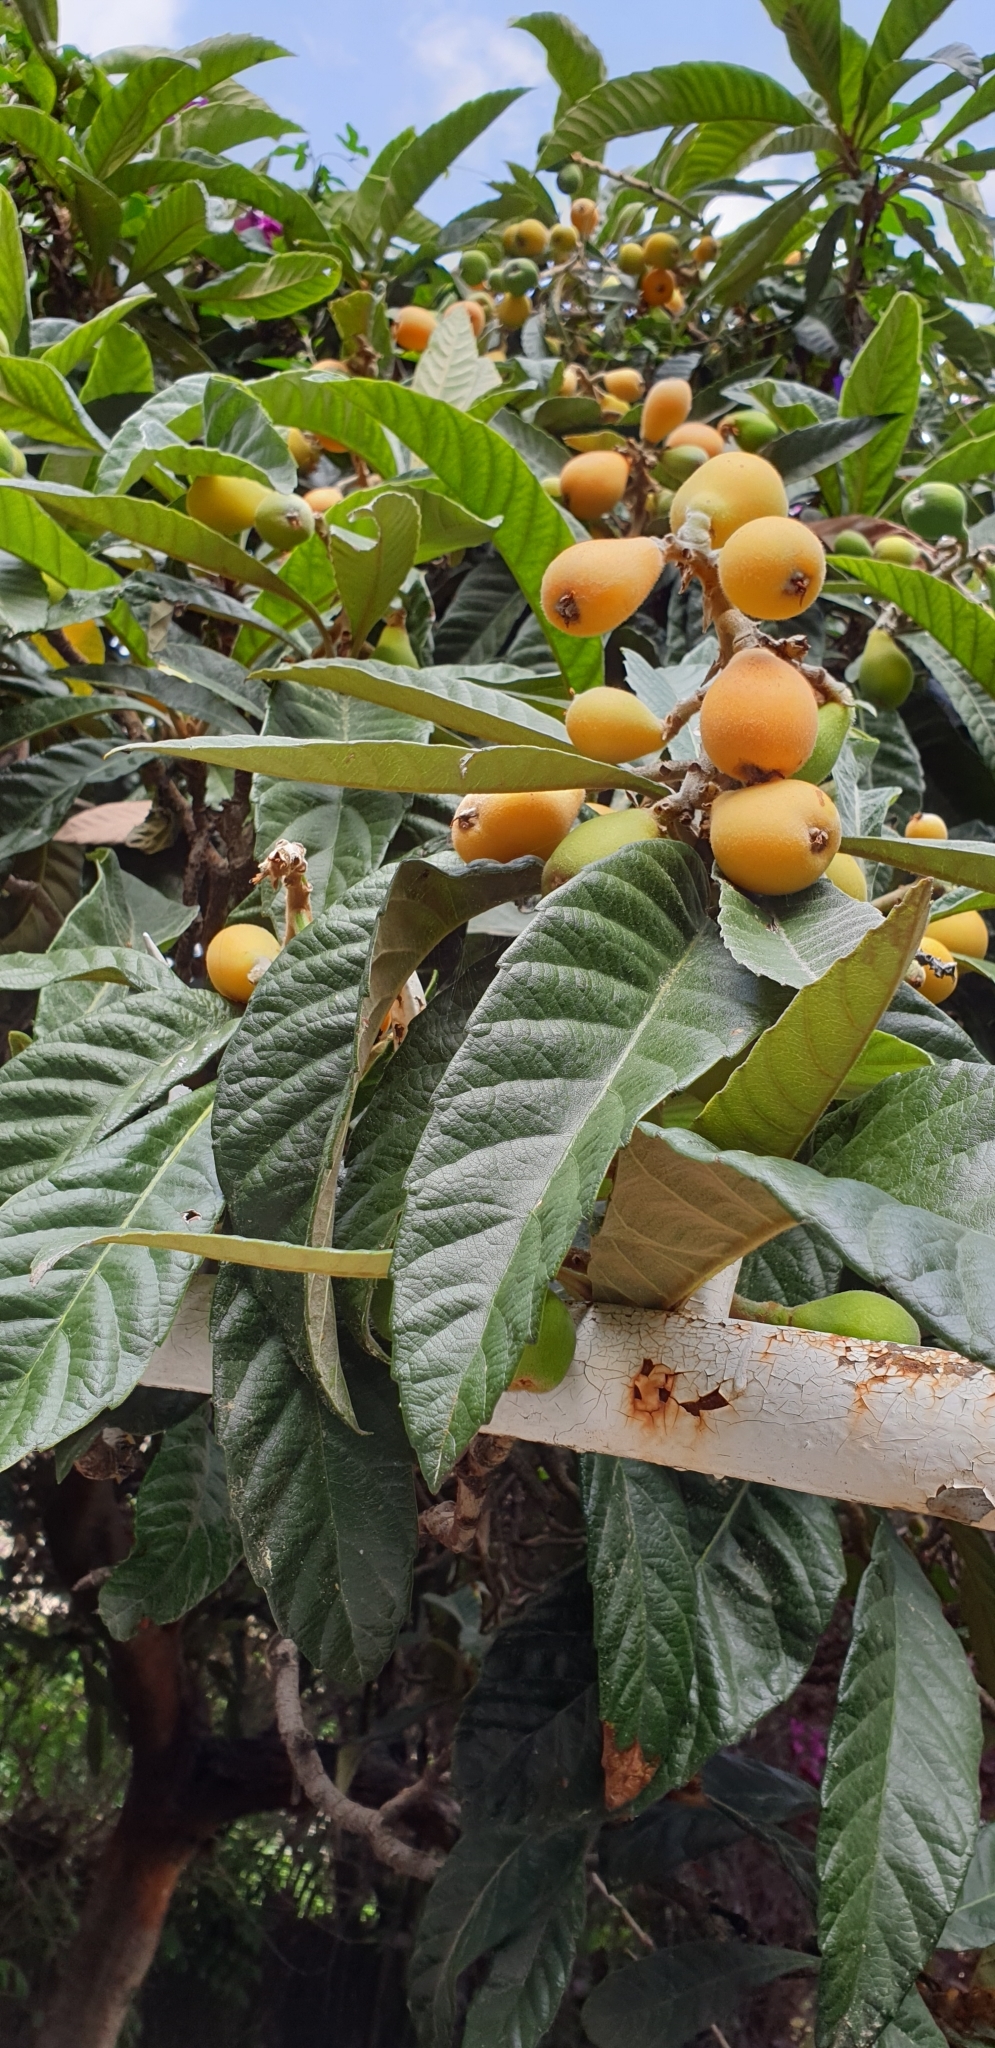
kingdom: Plantae
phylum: Tracheophyta
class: Magnoliopsida
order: Rosales
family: Rosaceae
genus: Rhaphiolepis
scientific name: Rhaphiolepis bibas
